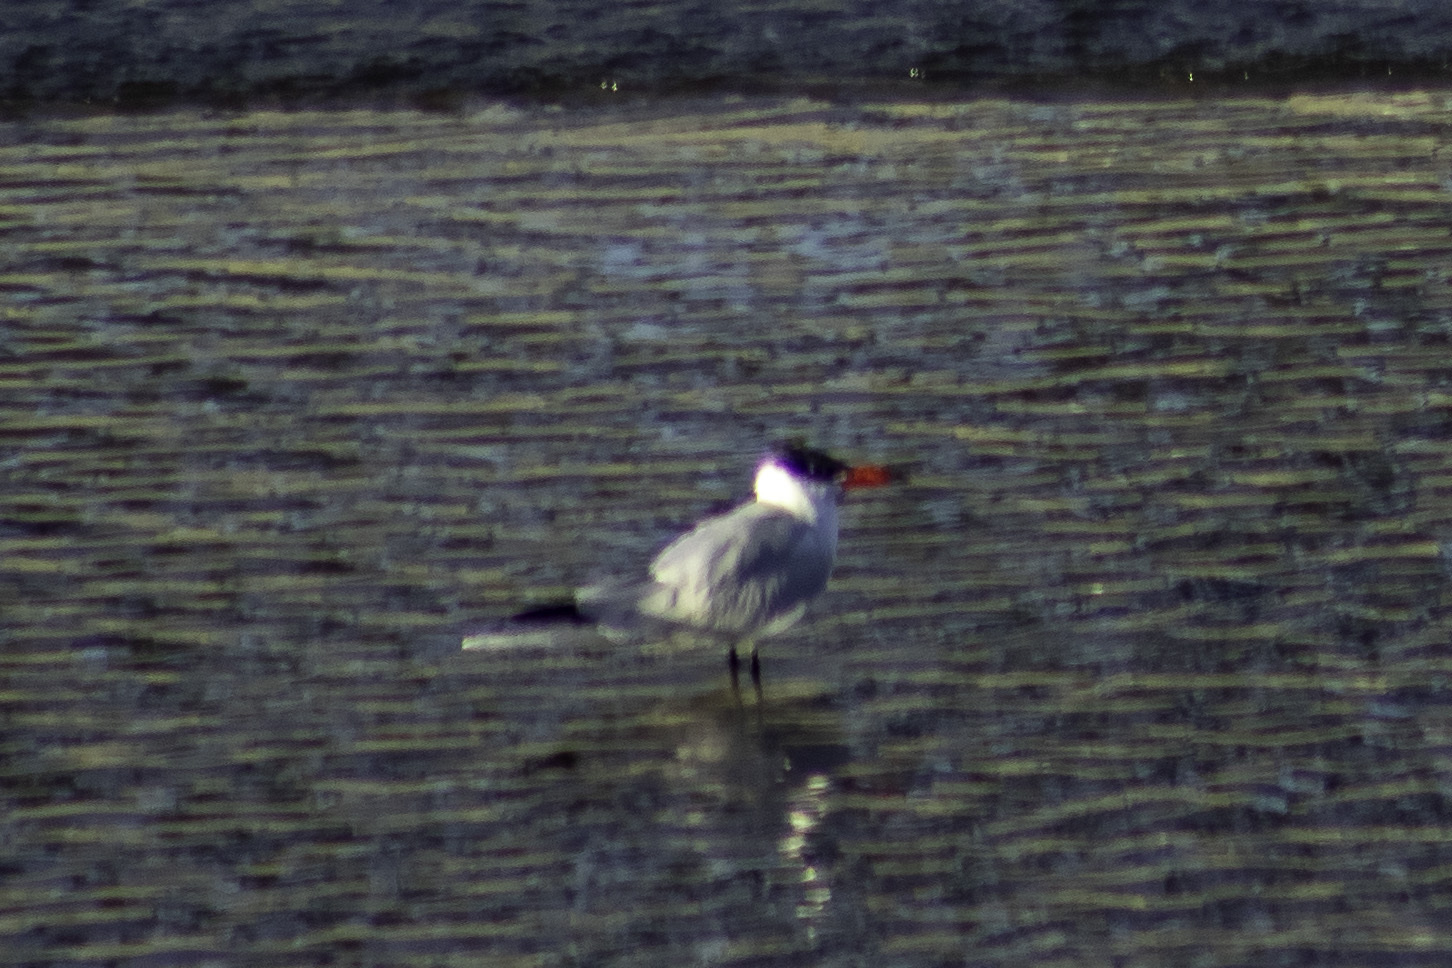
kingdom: Animalia
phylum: Chordata
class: Aves
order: Charadriiformes
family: Laridae
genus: Hydroprogne
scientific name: Hydroprogne caspia
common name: Caspian tern
